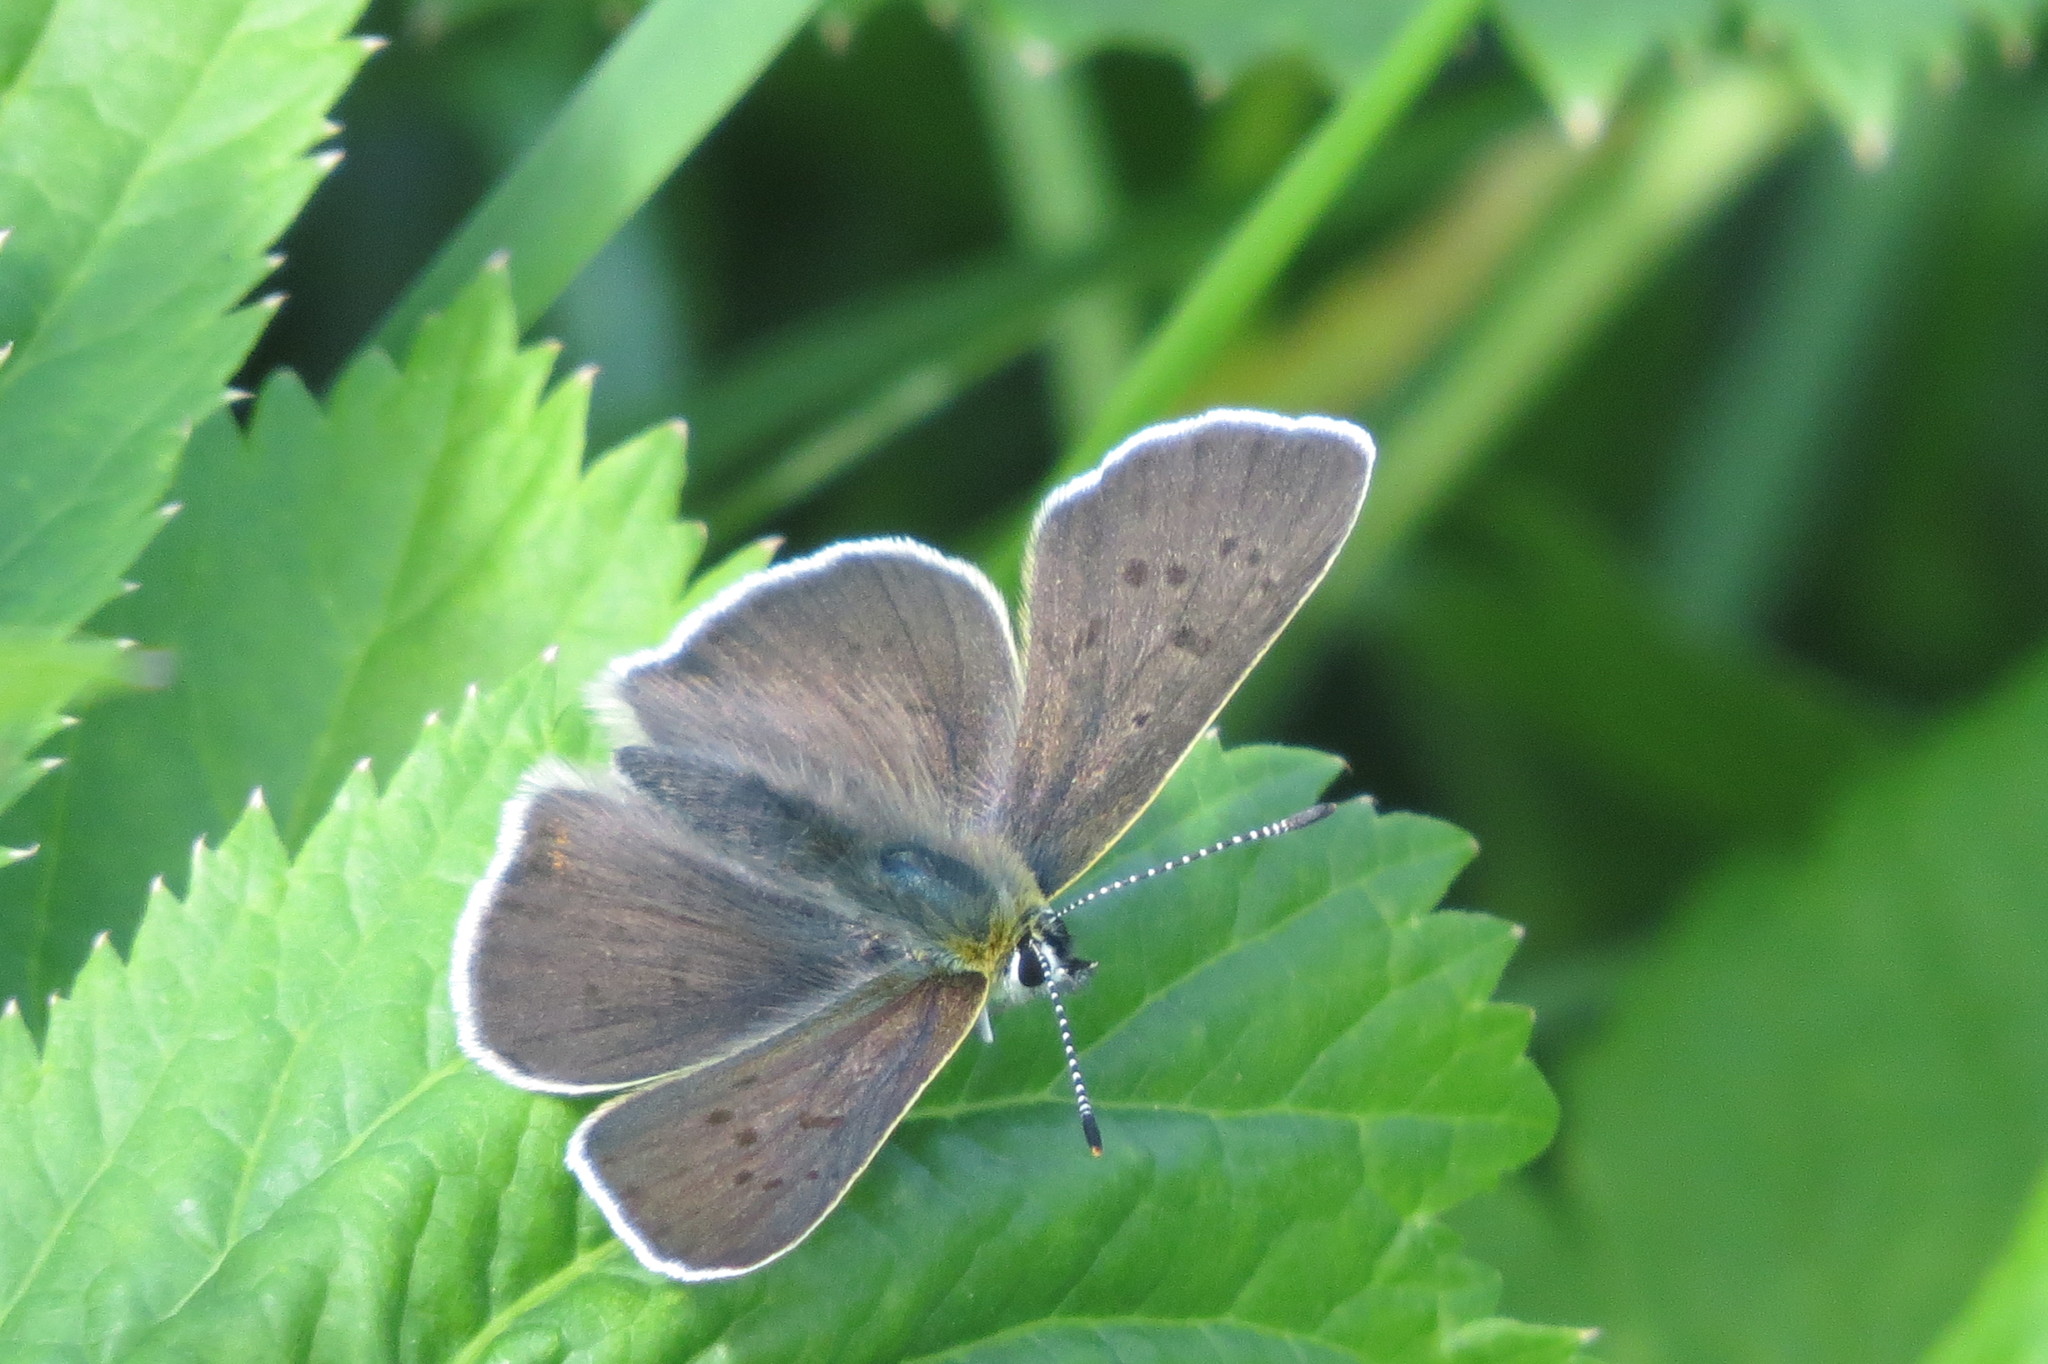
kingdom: Animalia
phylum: Arthropoda
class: Insecta
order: Lepidoptera
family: Lycaenidae
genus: Loweia
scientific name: Loweia tityrus
